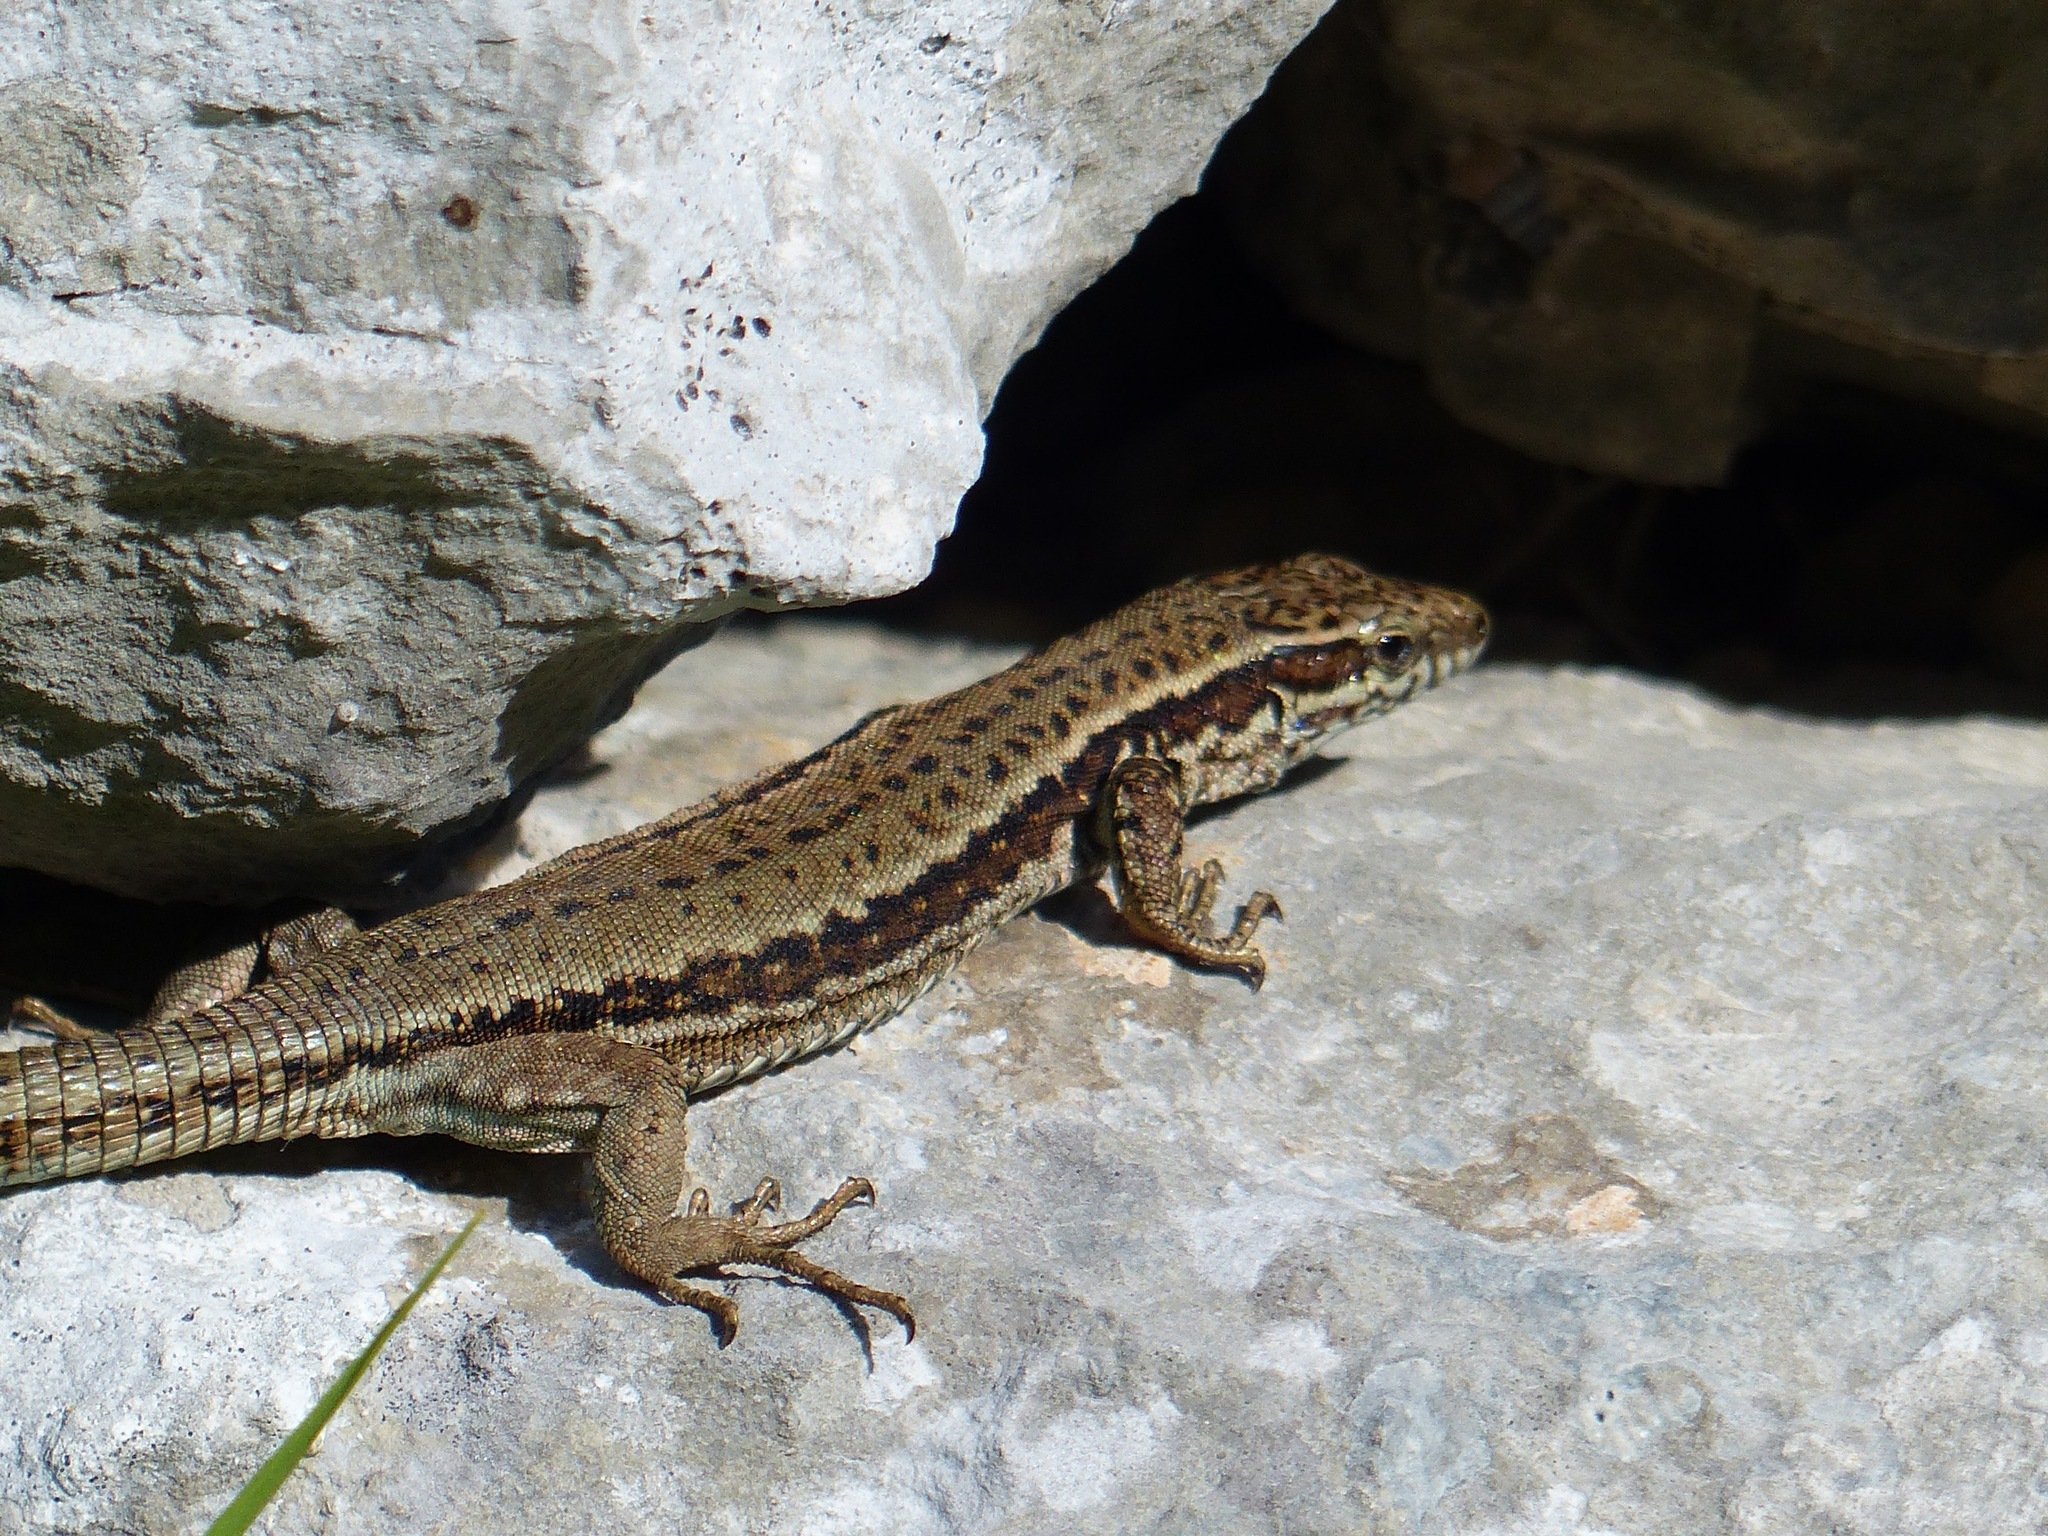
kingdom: Animalia
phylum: Chordata
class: Squamata
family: Lacertidae
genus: Podarcis
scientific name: Podarcis muralis
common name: Common wall lizard
